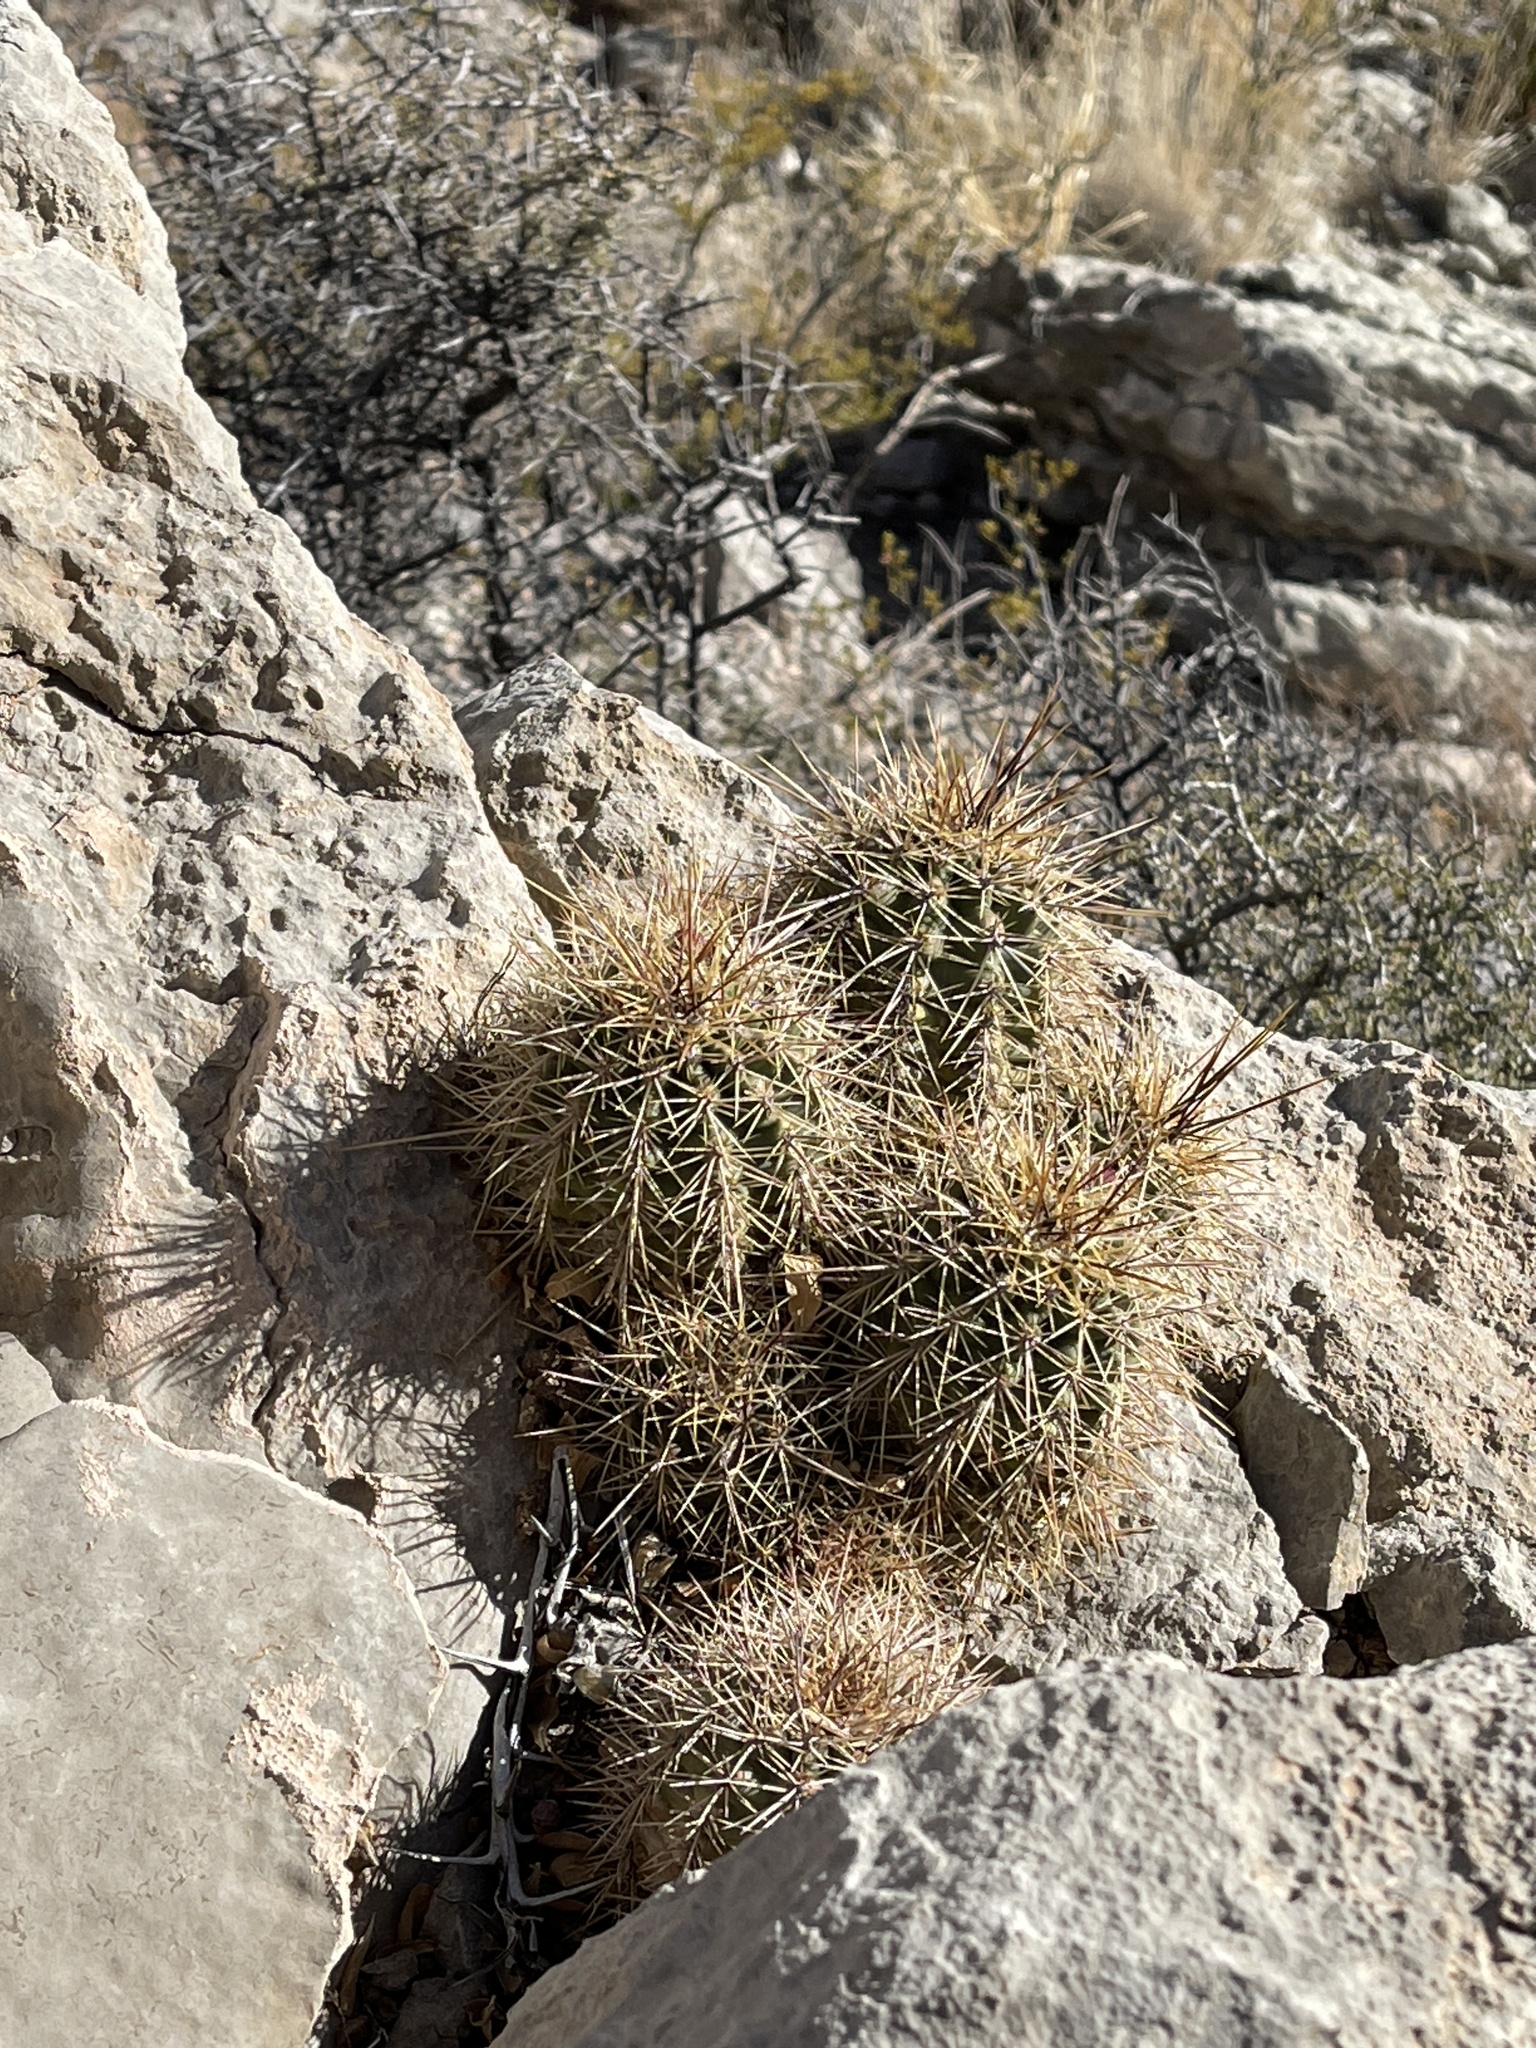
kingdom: Plantae
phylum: Tracheophyta
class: Magnoliopsida
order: Caryophyllales
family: Cactaceae
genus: Echinocereus
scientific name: Echinocereus coccineus
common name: Scarlet hedgehog cactus
